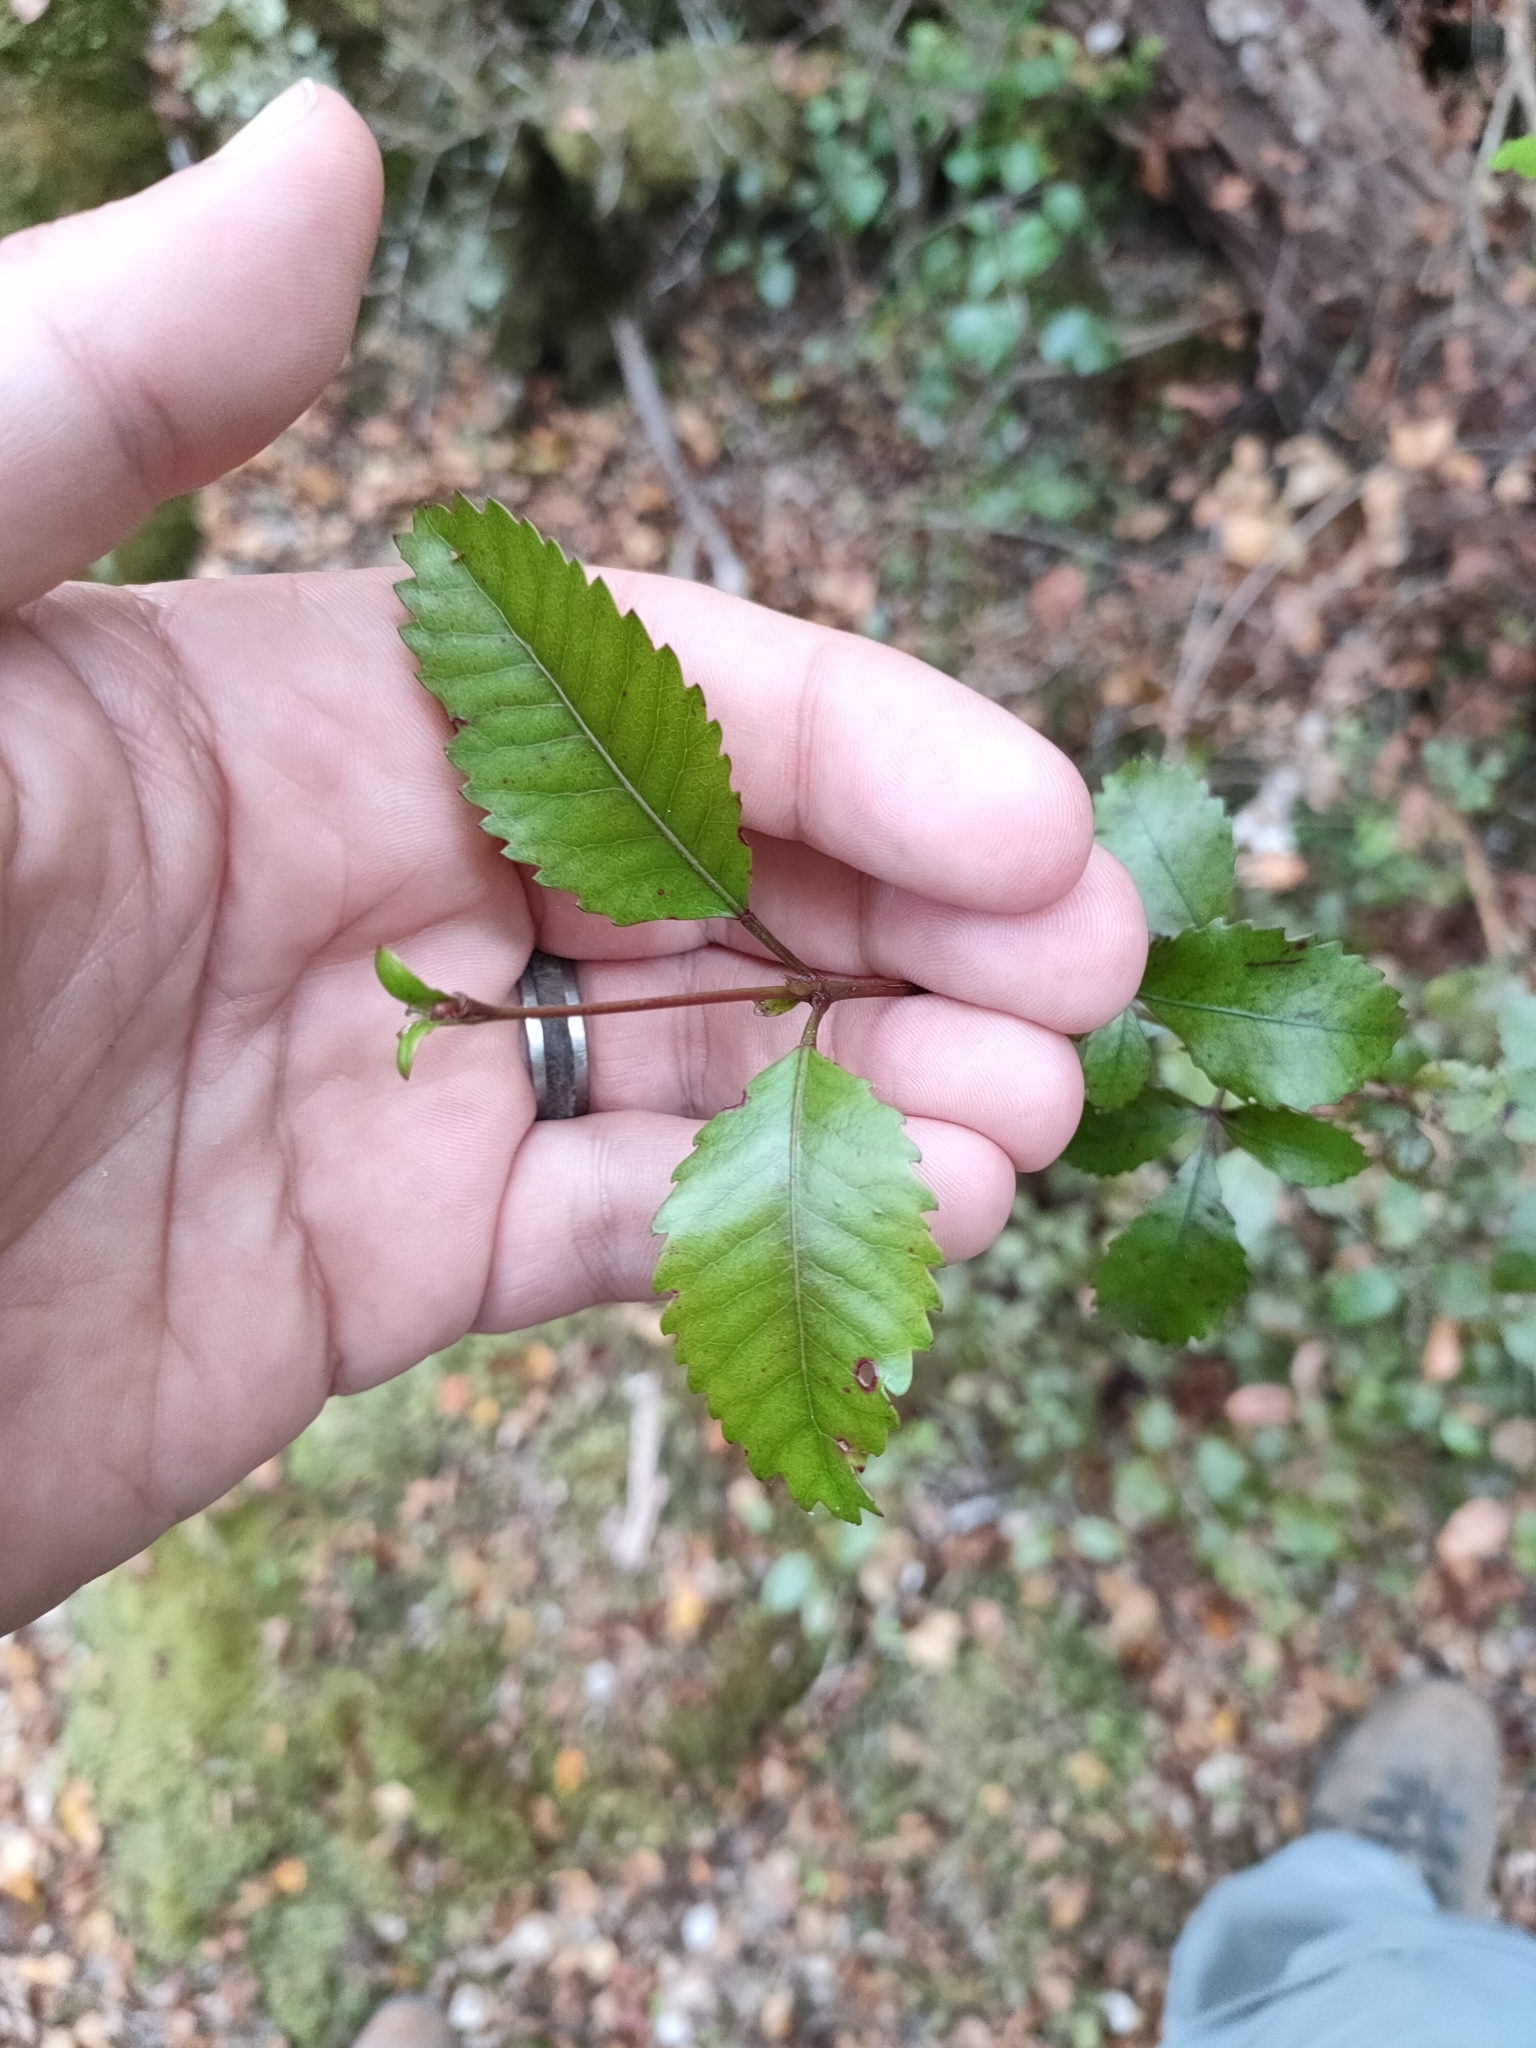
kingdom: Plantae
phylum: Tracheophyta
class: Magnoliopsida
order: Oxalidales
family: Cunoniaceae
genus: Pterophylla
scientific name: Pterophylla racemosa
